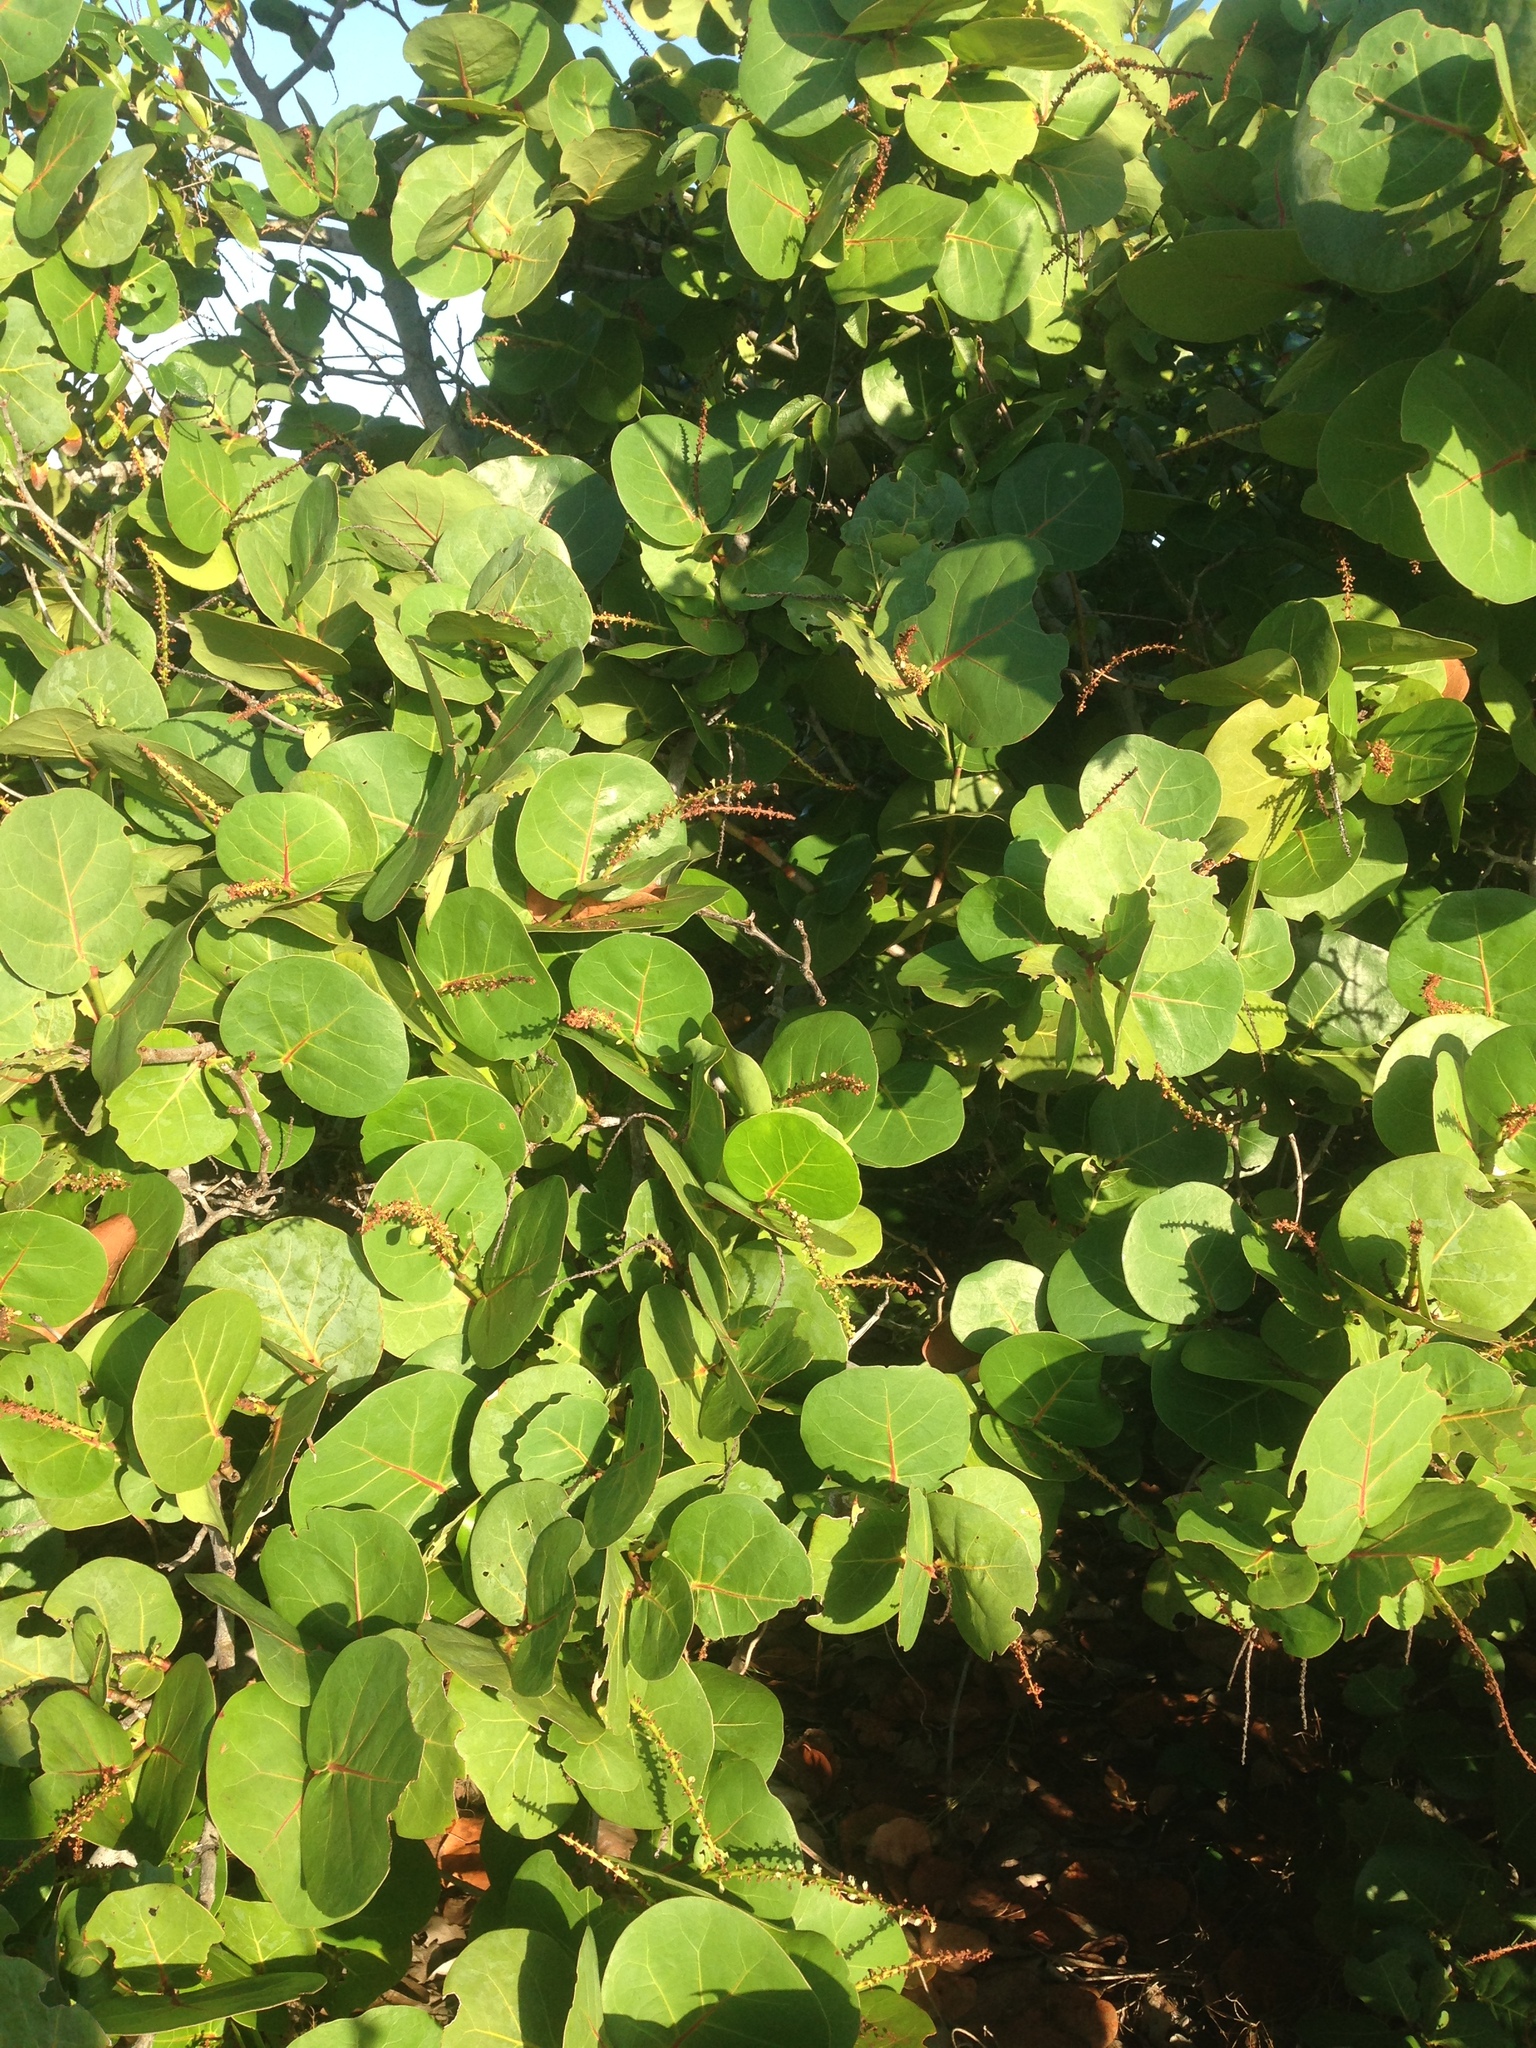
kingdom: Plantae
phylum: Tracheophyta
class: Magnoliopsida
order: Caryophyllales
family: Polygonaceae
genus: Coccoloba
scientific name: Coccoloba uvifera
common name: Seagrape
